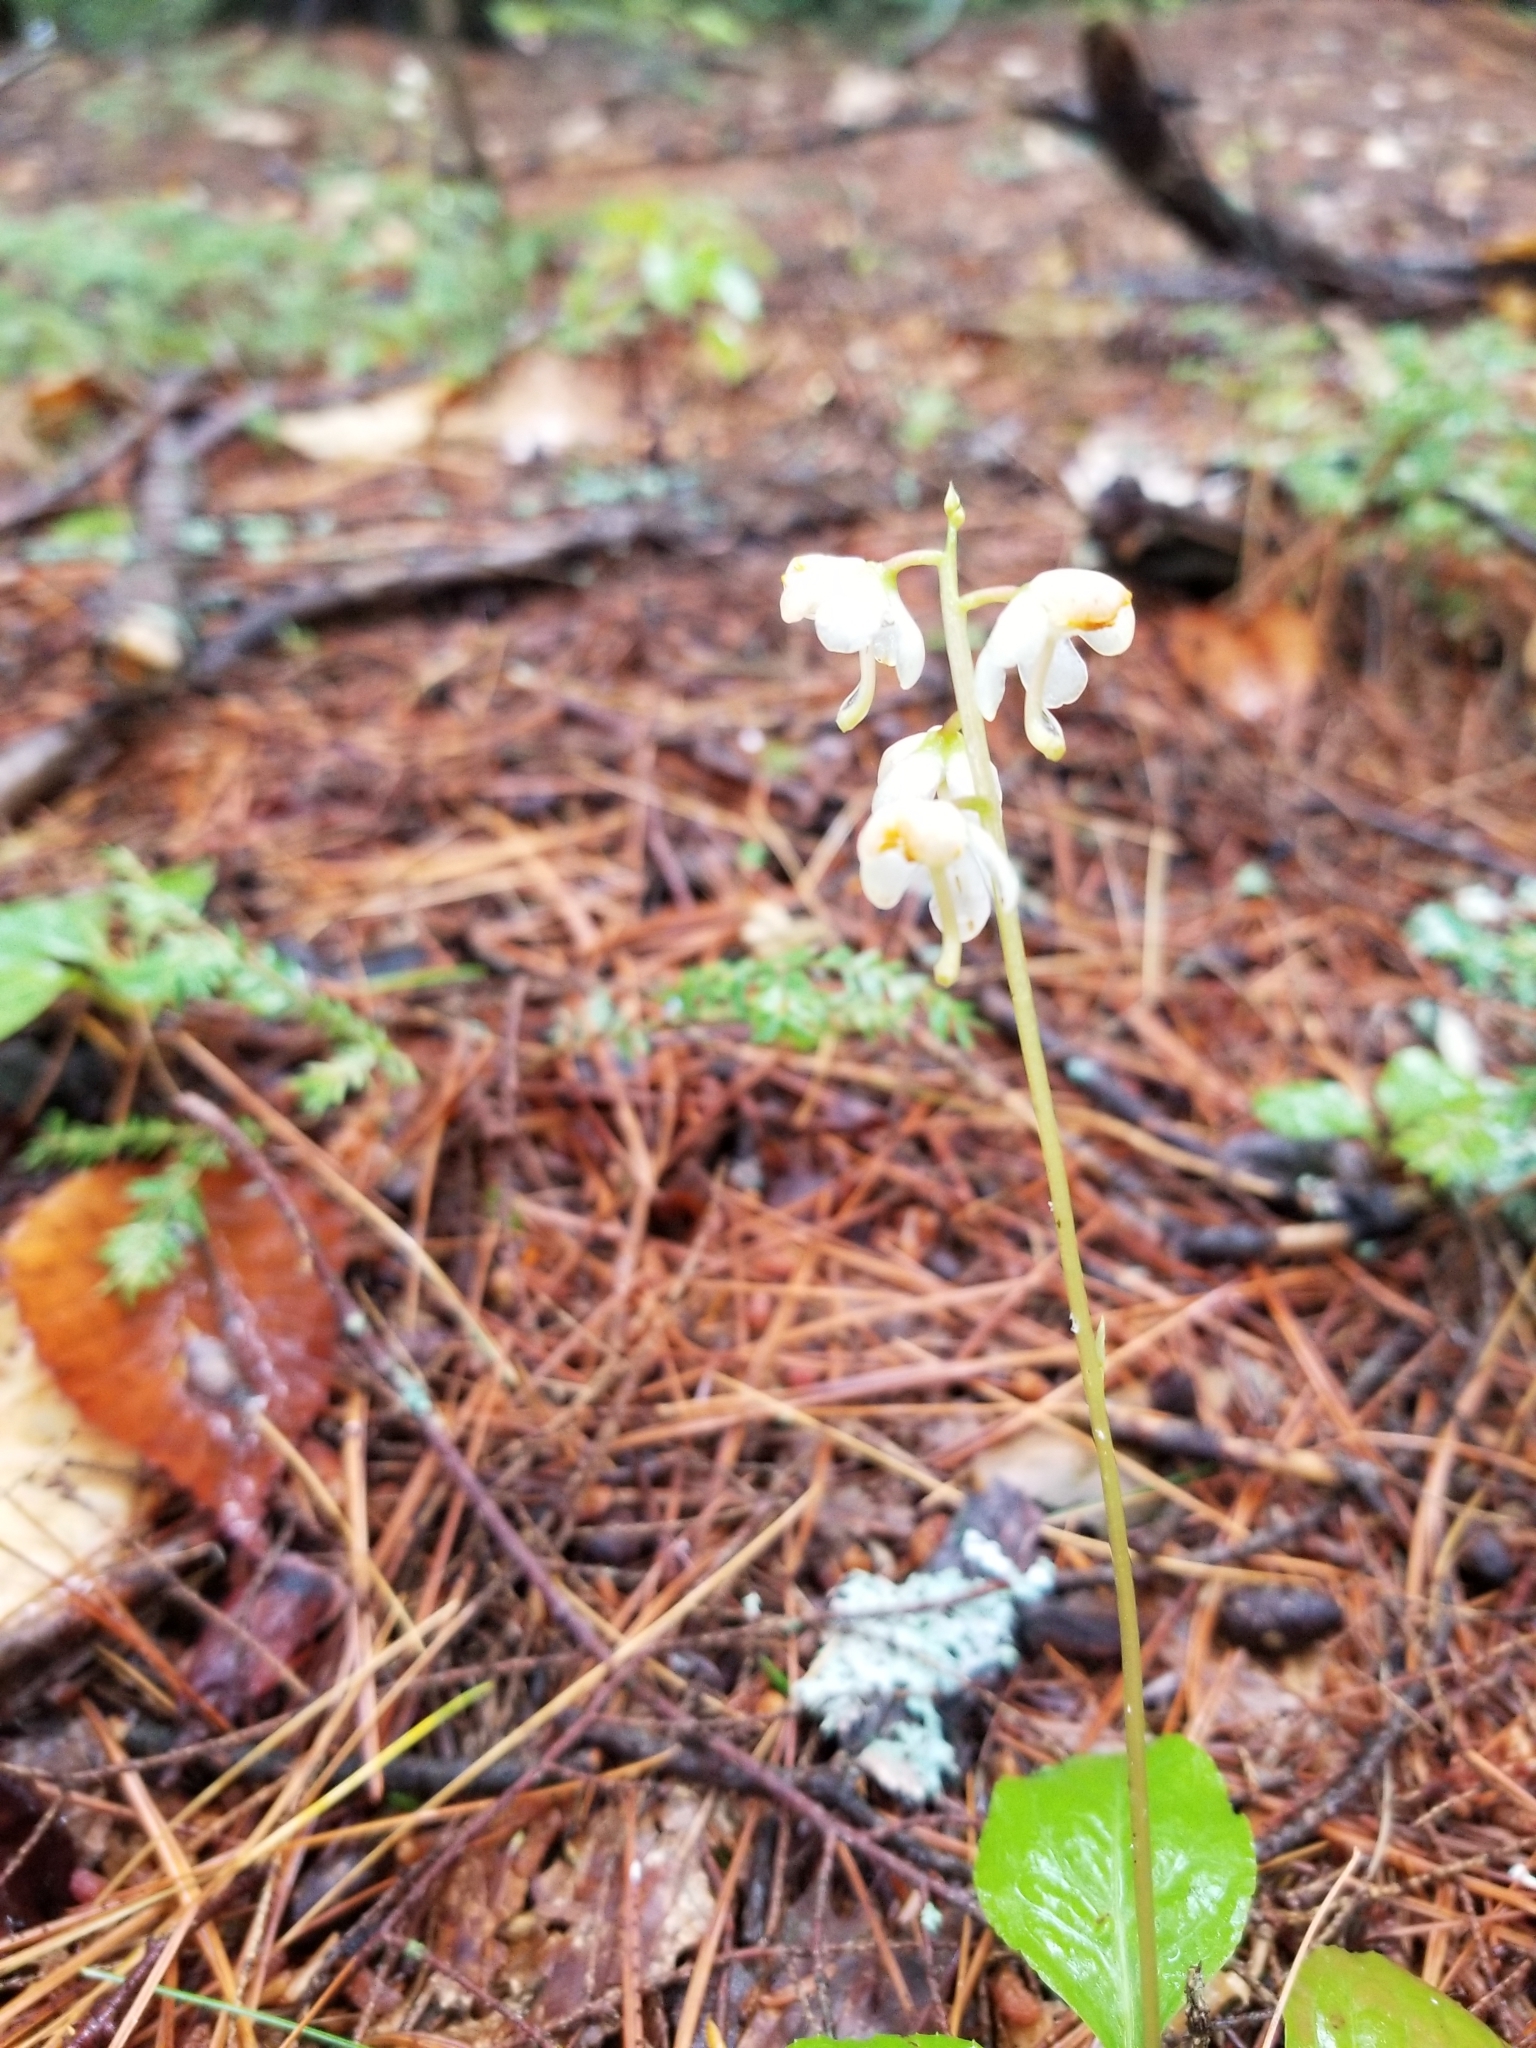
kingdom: Plantae
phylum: Tracheophyta
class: Magnoliopsida
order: Ericales
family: Ericaceae
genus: Pyrola
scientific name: Pyrola elliptica
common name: Shinleaf
